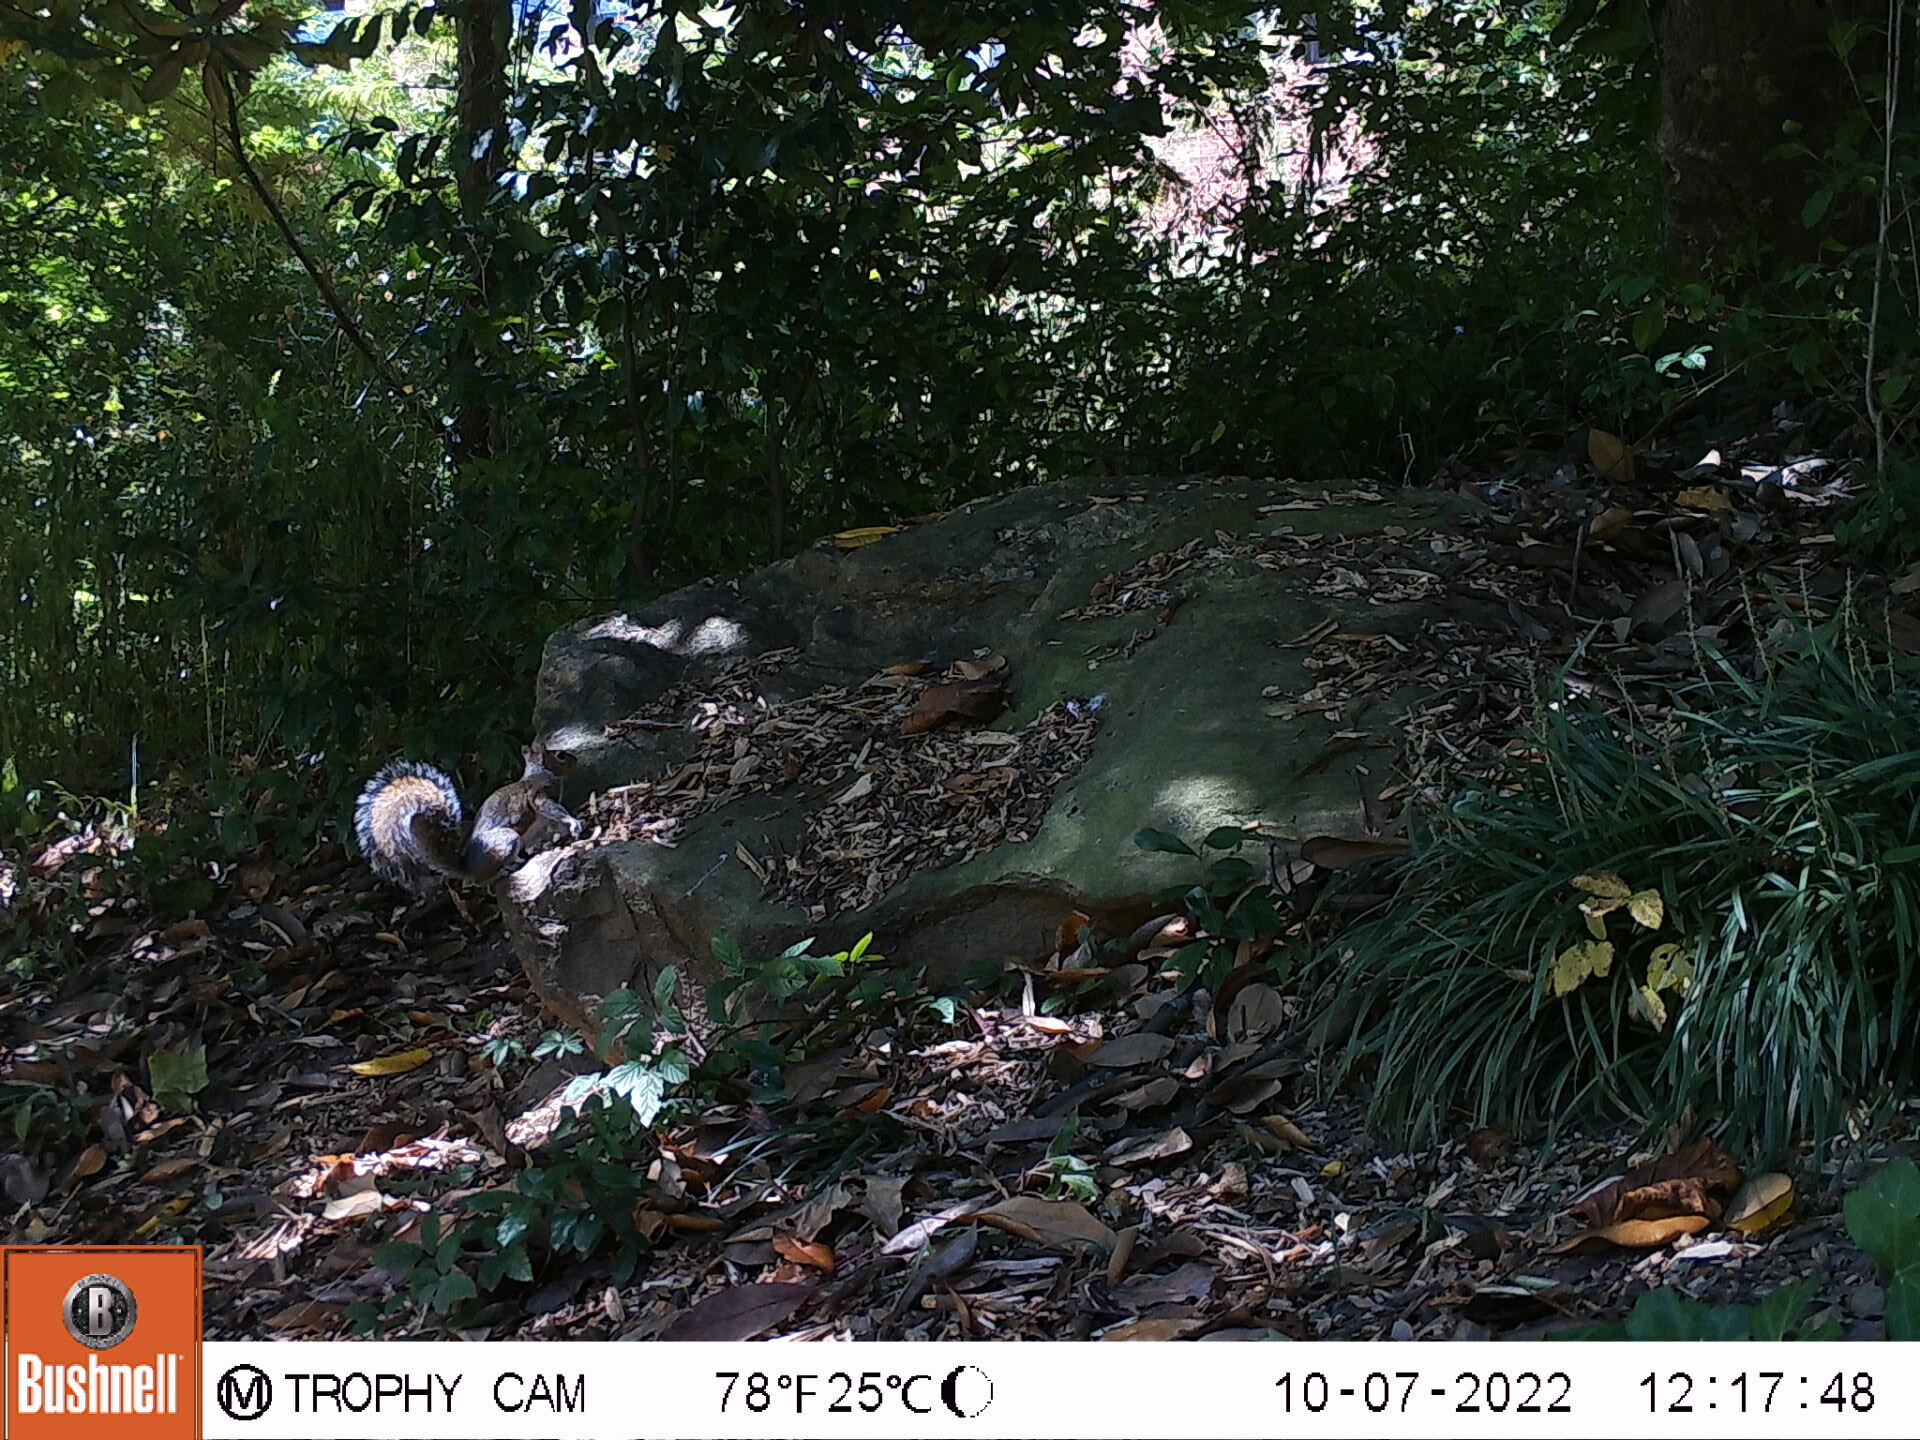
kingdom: Animalia
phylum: Chordata
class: Mammalia
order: Rodentia
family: Sciuridae
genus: Sciurus
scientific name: Sciurus carolinensis
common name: Eastern gray squirrel
